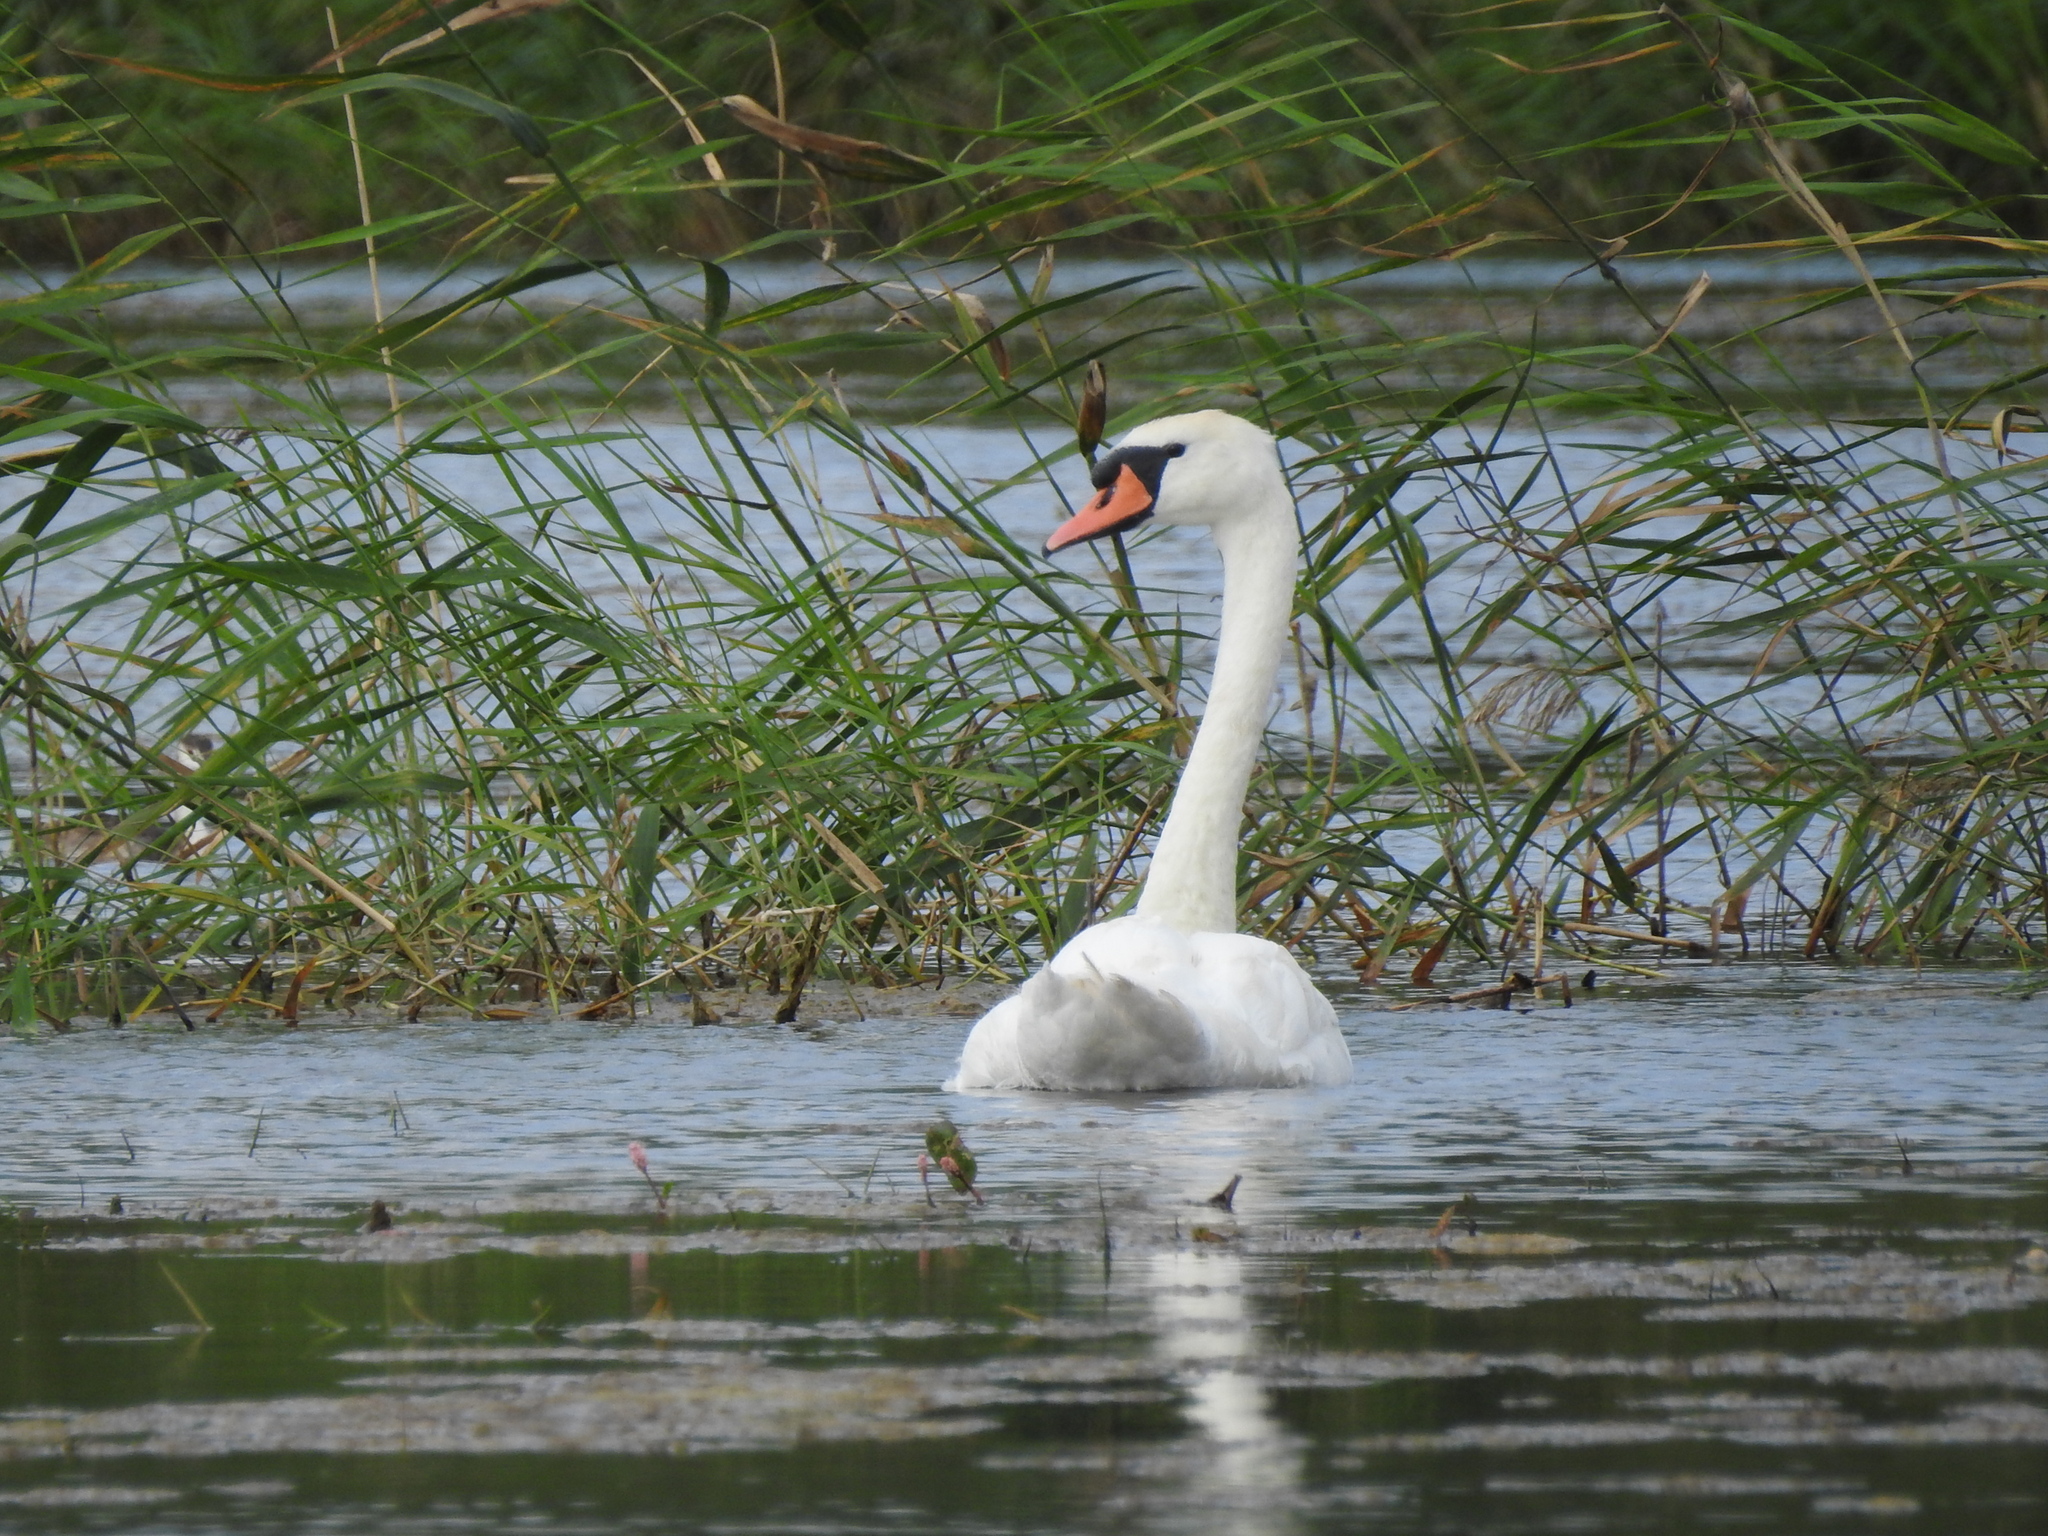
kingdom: Animalia
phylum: Chordata
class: Aves
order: Anseriformes
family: Anatidae
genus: Cygnus
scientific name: Cygnus olor
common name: Mute swan
